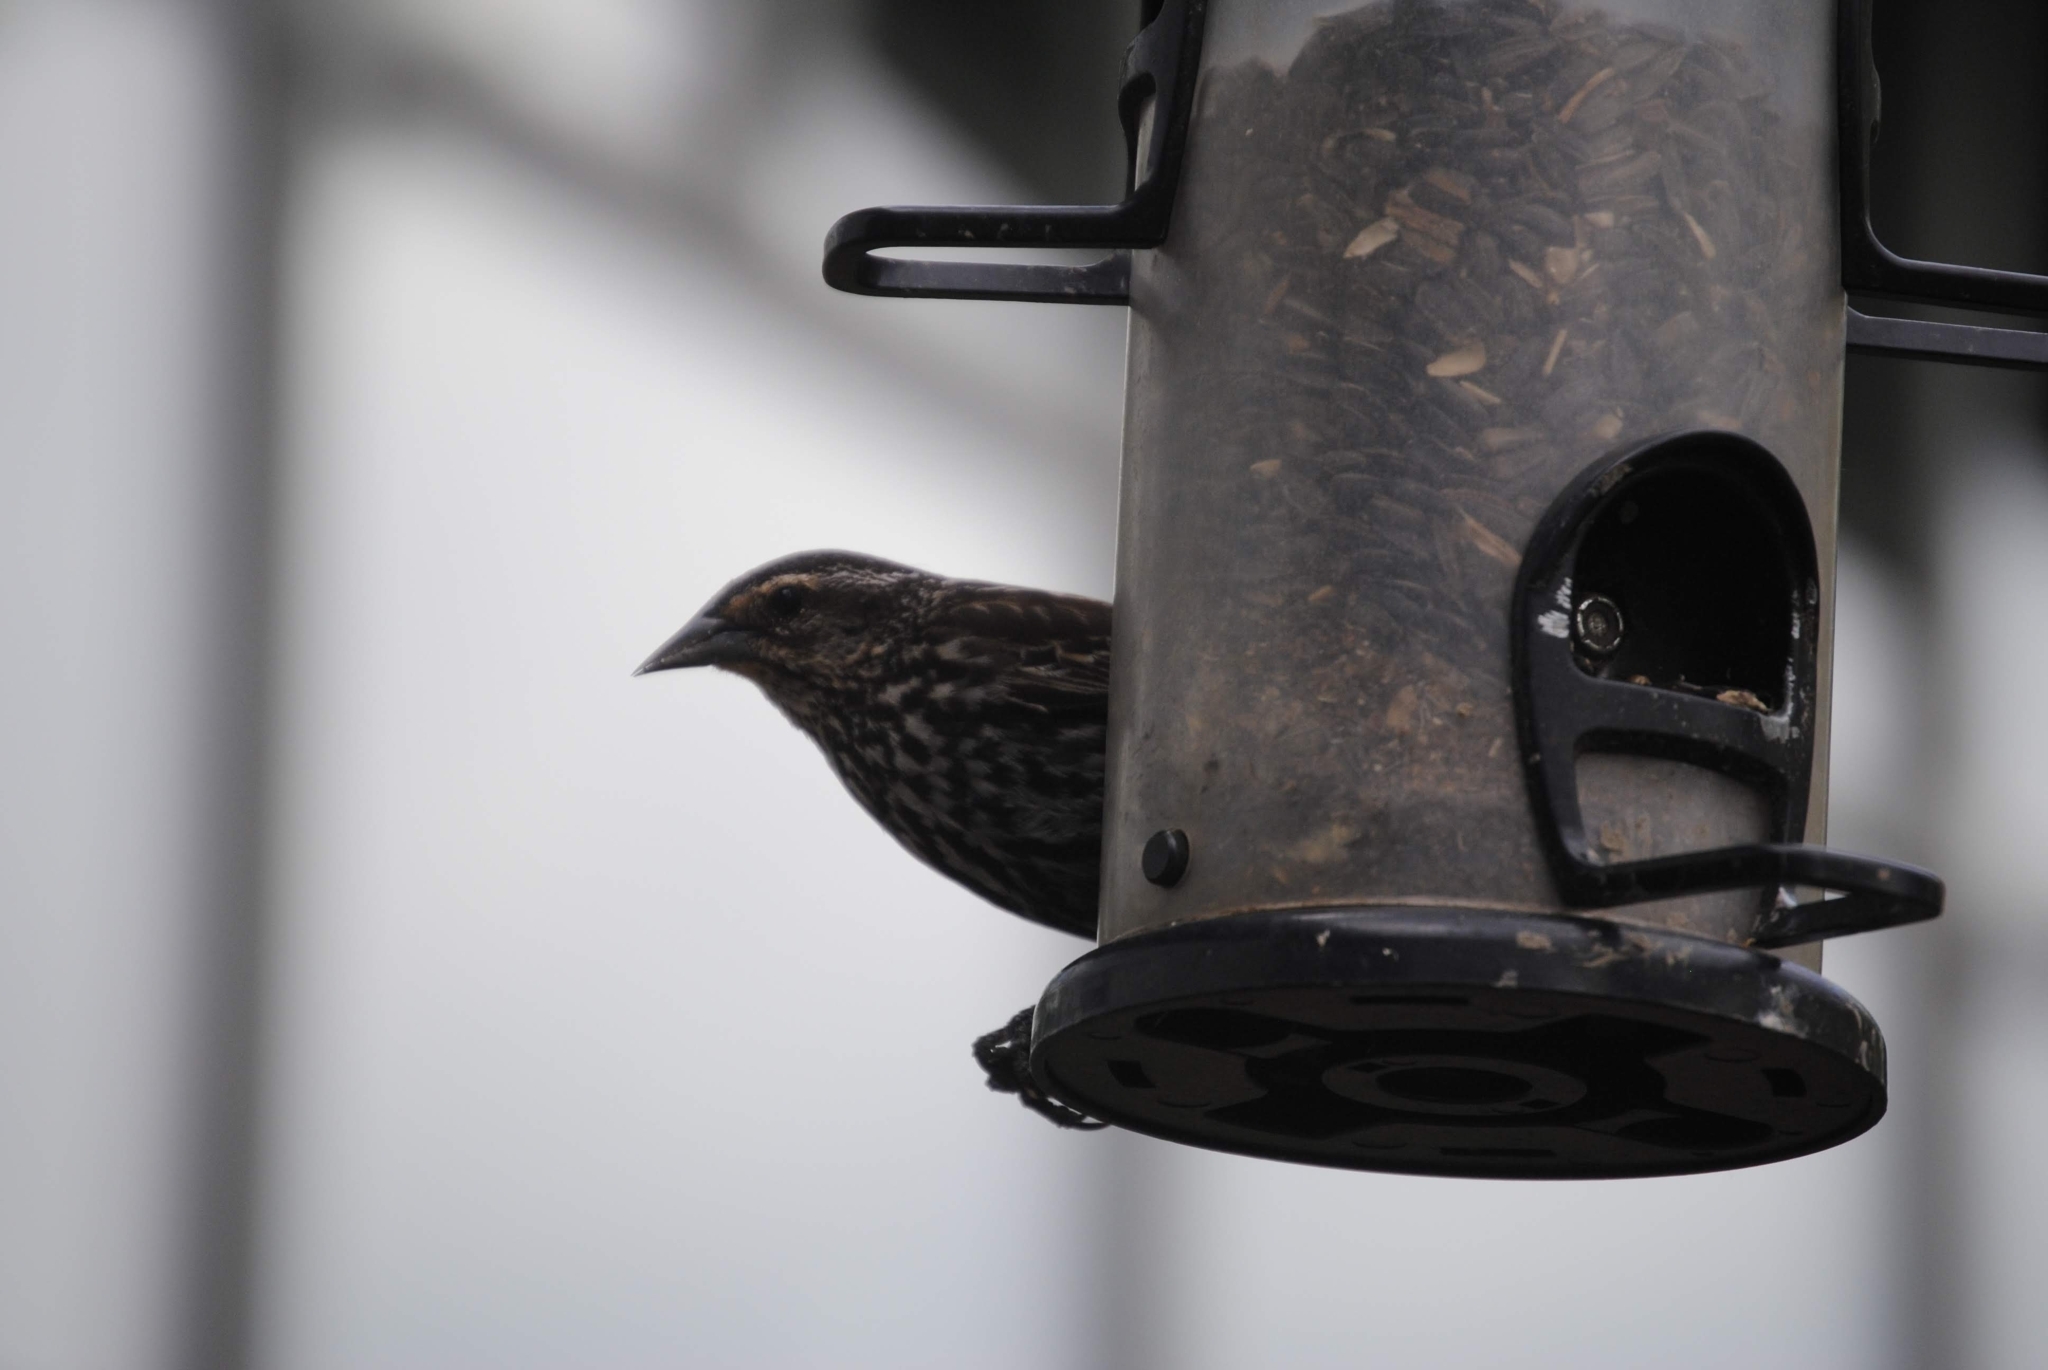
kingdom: Animalia
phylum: Chordata
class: Aves
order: Passeriformes
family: Icteridae
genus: Agelaius
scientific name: Agelaius phoeniceus
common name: Red-winged blackbird
